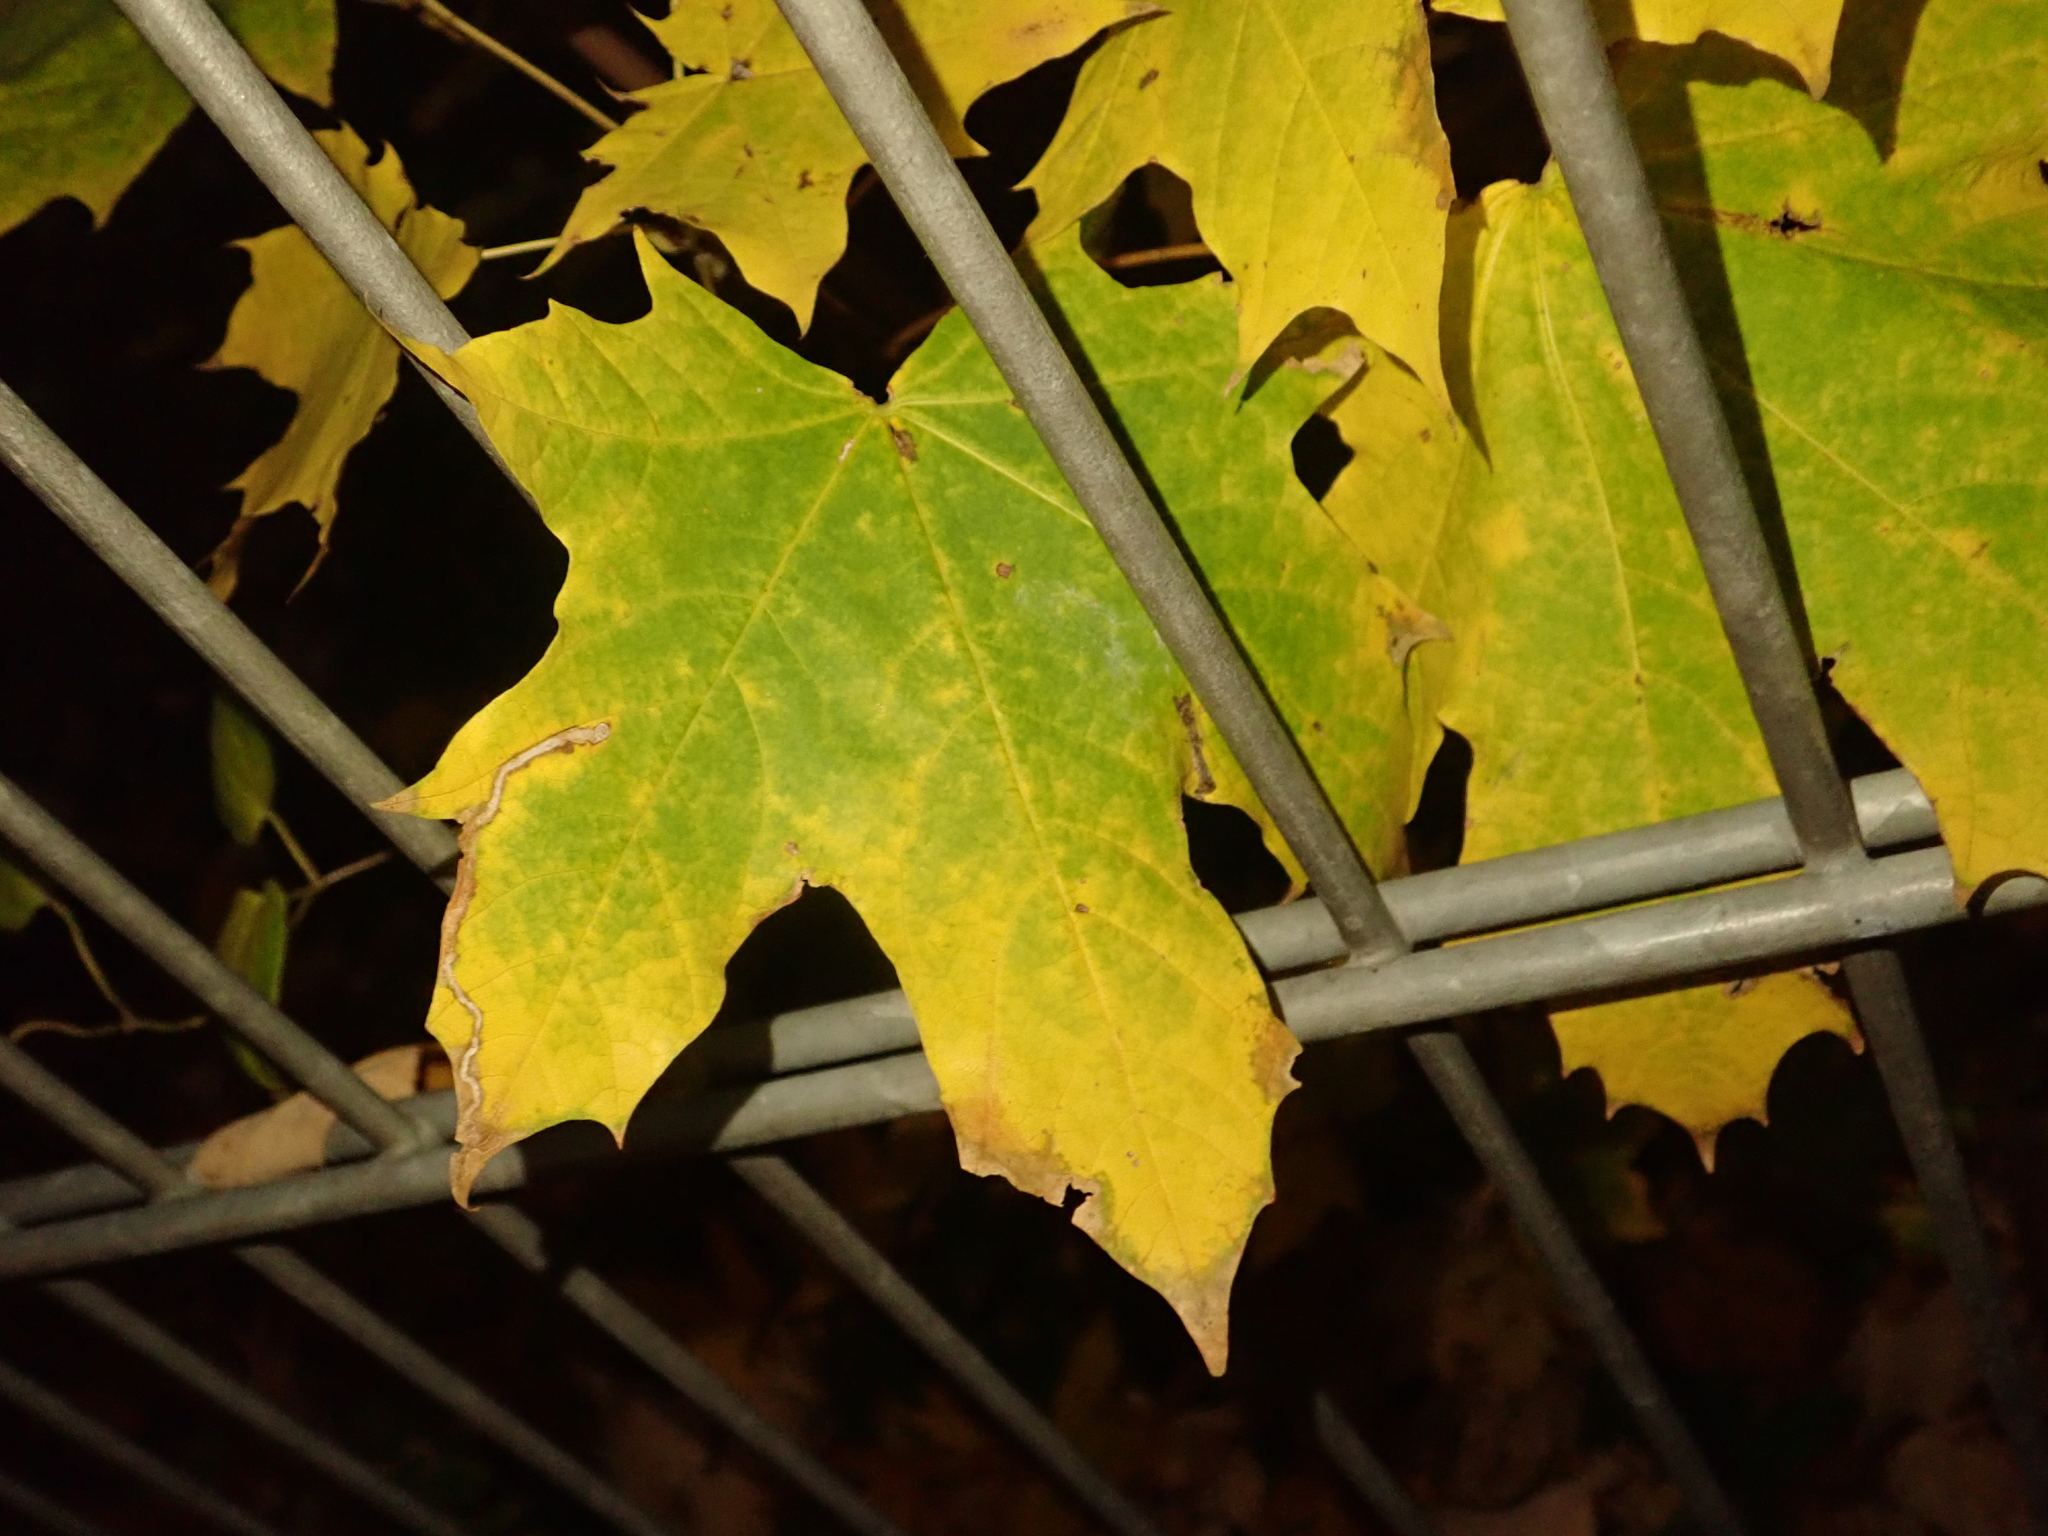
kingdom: Plantae
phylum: Tracheophyta
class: Magnoliopsida
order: Sapindales
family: Sapindaceae
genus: Acer
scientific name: Acer platanoides
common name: Norway maple
